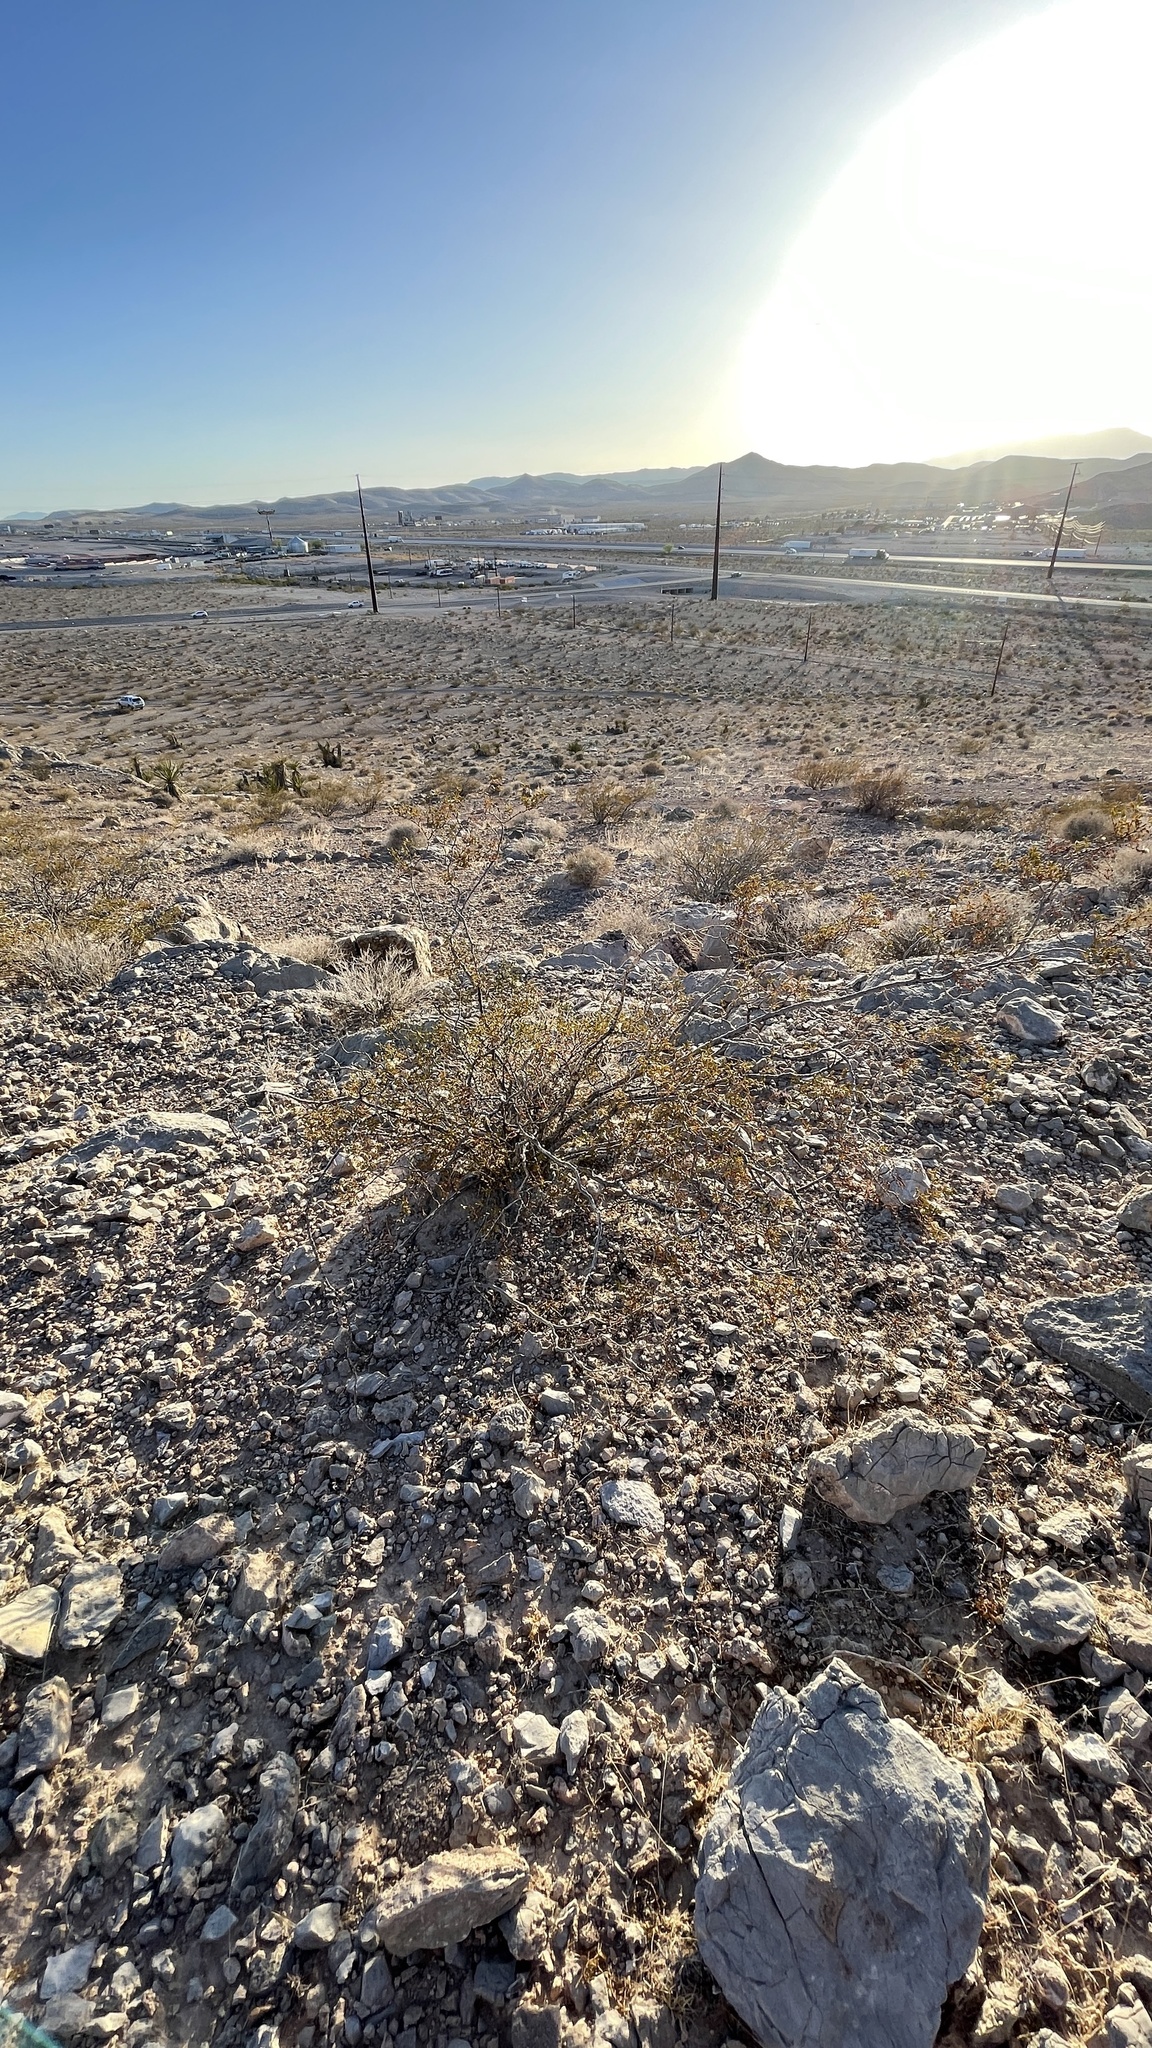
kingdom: Plantae
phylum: Tracheophyta
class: Magnoliopsida
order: Zygophyllales
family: Zygophyllaceae
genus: Larrea
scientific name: Larrea tridentata
